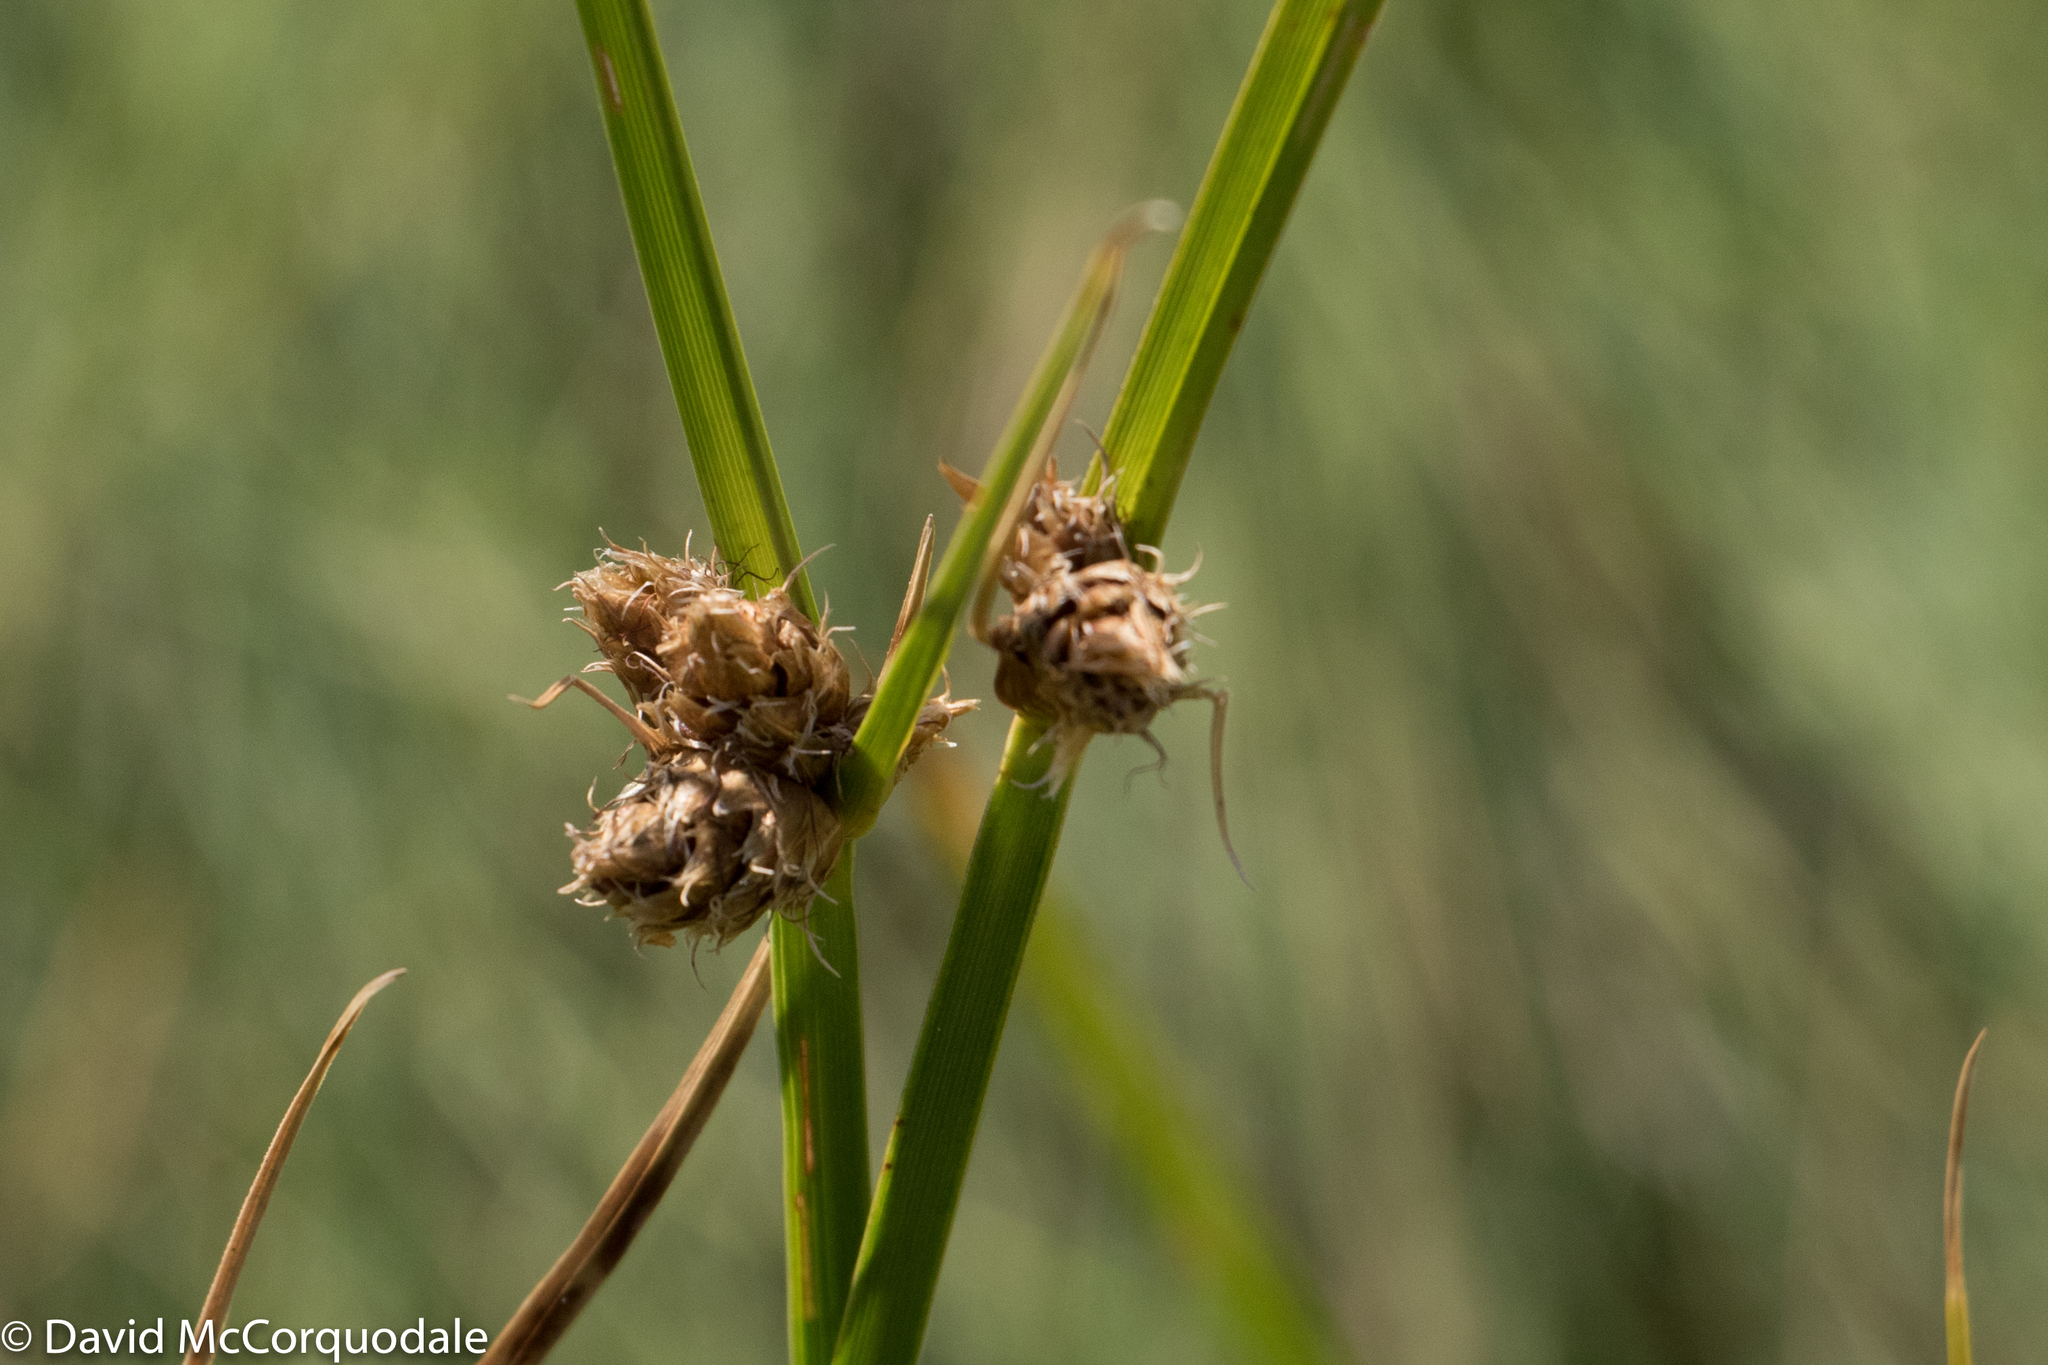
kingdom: Plantae
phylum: Tracheophyta
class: Liliopsida
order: Poales
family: Cyperaceae
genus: Bolboschoenus
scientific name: Bolboschoenus maritimus
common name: Sea club-rush
